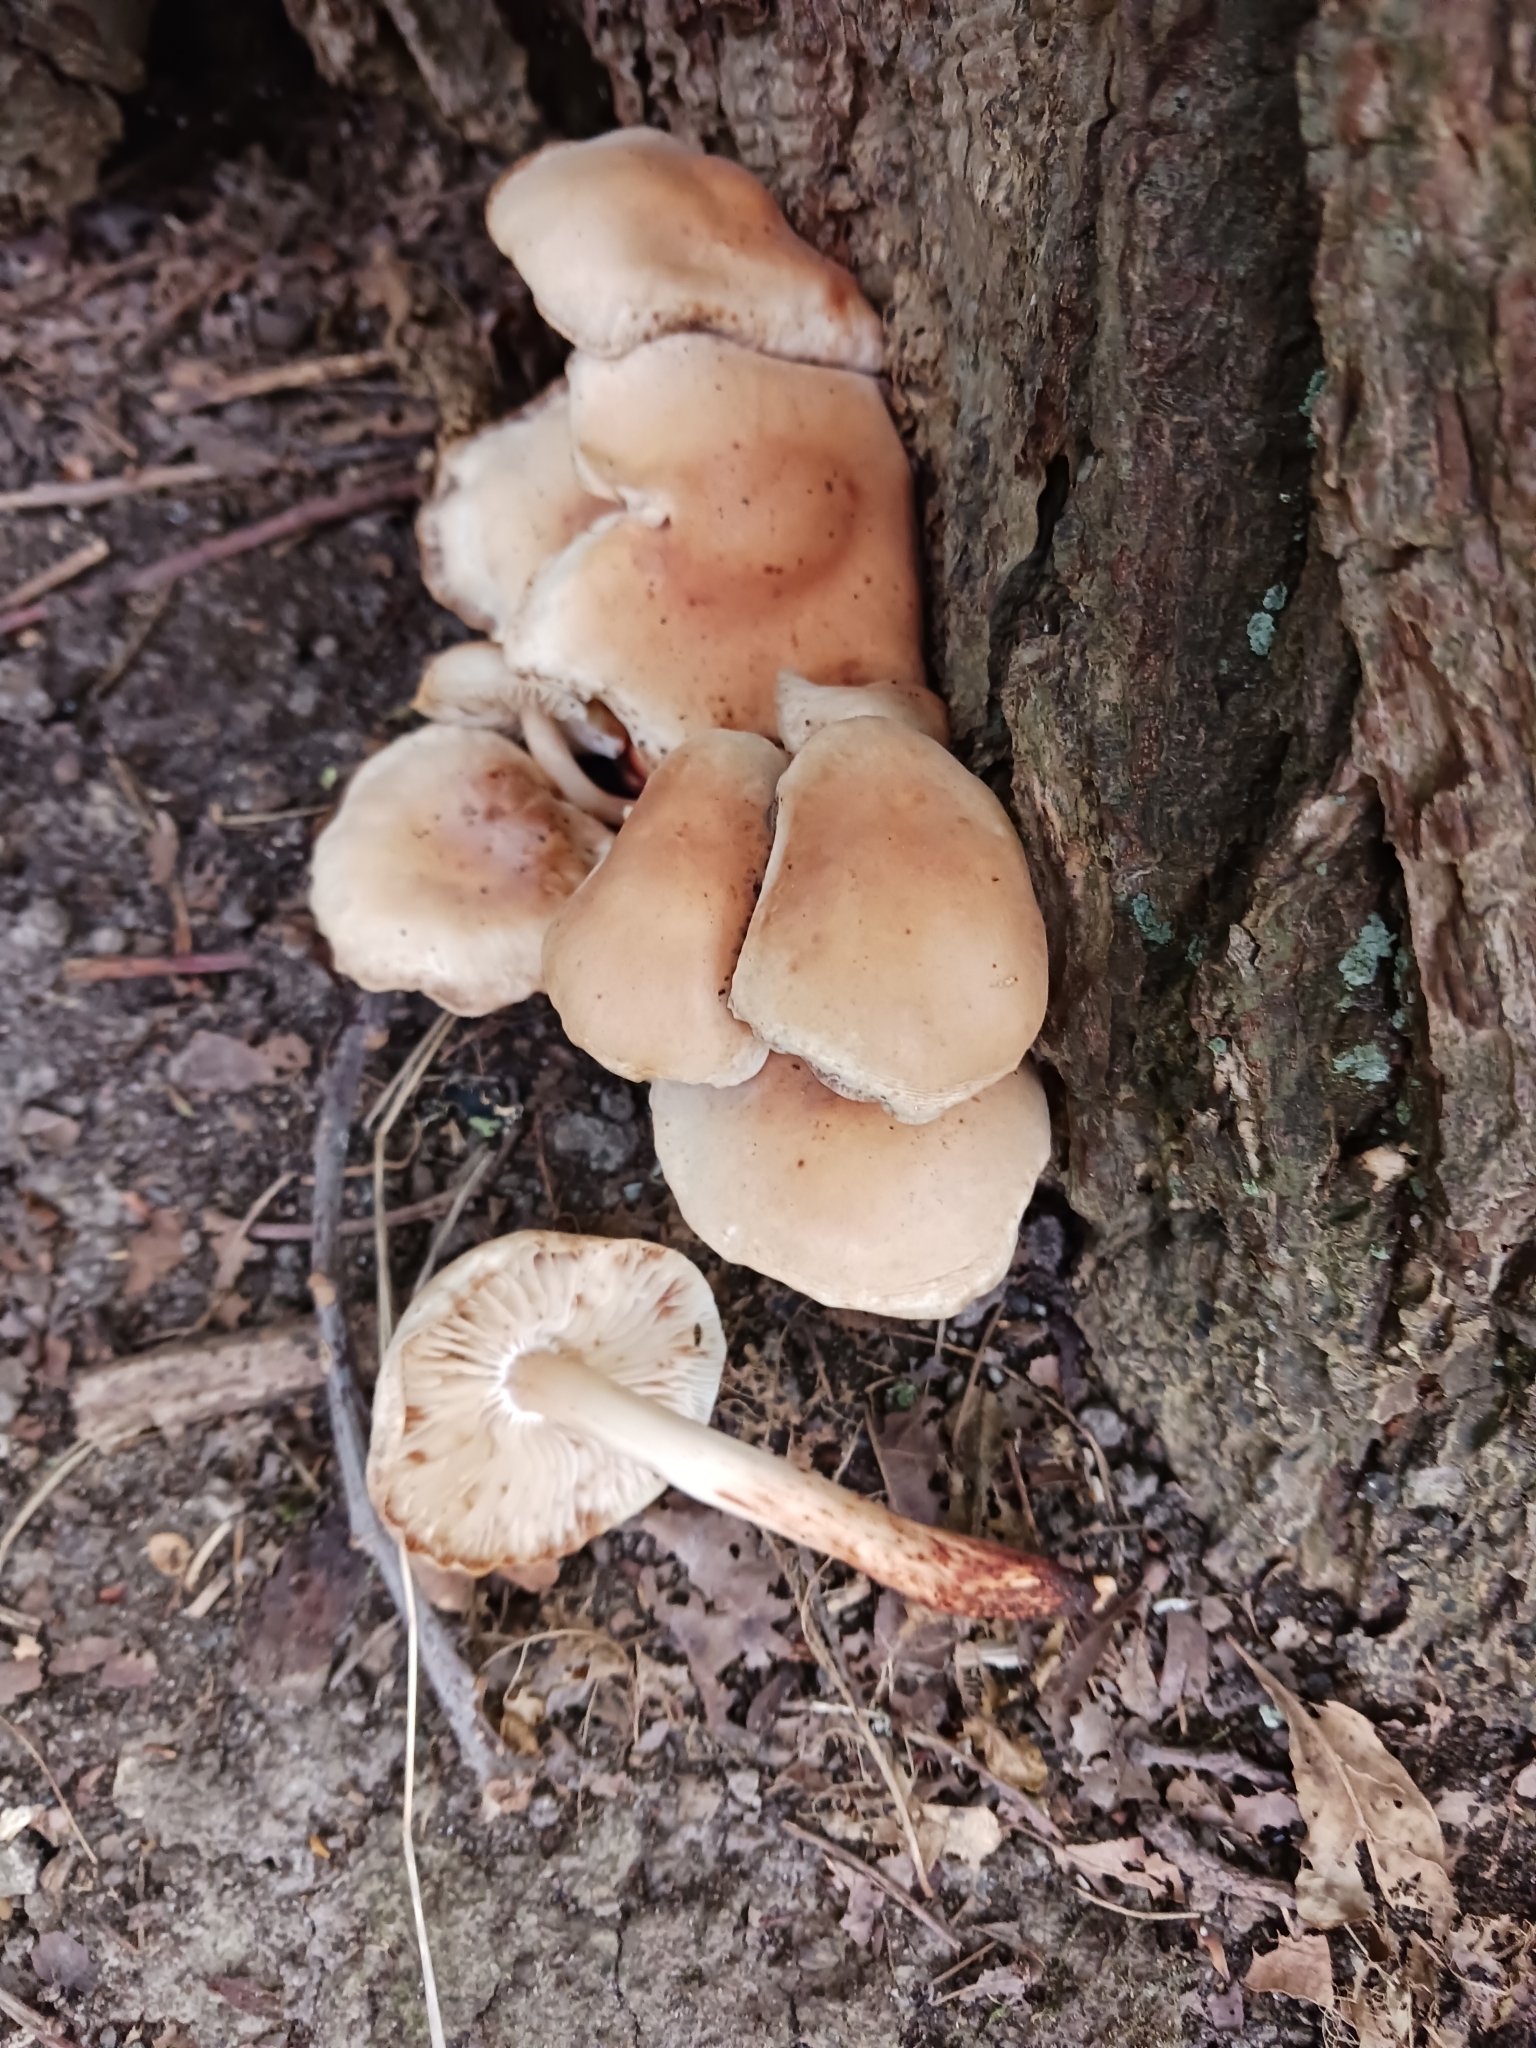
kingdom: Fungi
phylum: Basidiomycota
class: Agaricomycetes
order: Agaricales
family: Omphalotaceae
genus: Gymnopus
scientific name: Gymnopus fusipes
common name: Spindle shank
